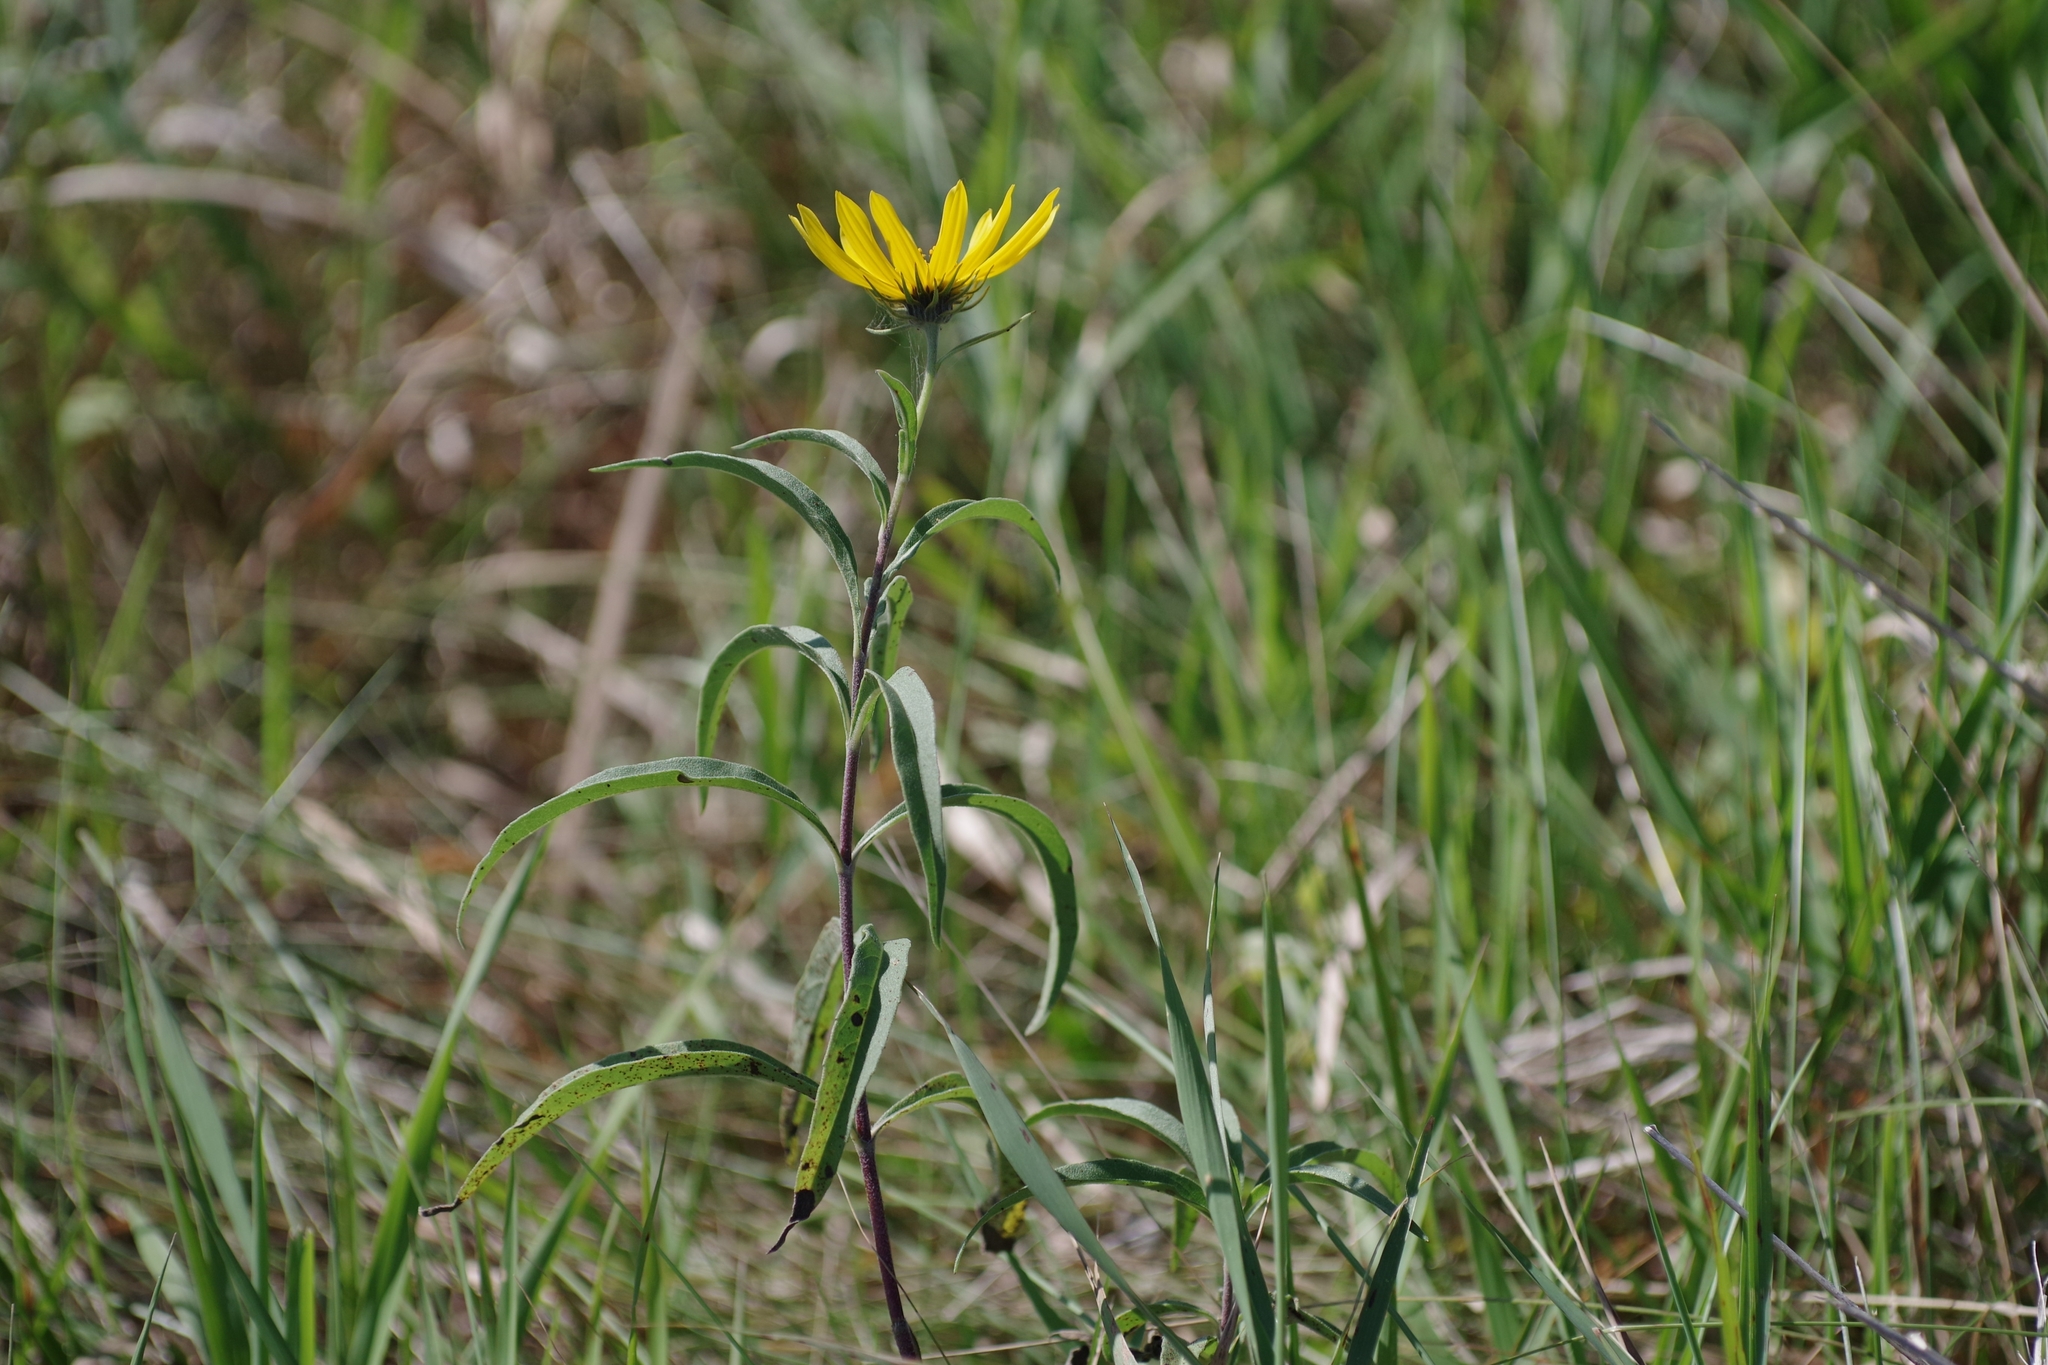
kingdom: Plantae
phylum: Tracheophyta
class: Magnoliopsida
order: Asterales
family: Asteraceae
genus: Helianthus
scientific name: Helianthus maximiliani
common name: Maximilian's sunflower
